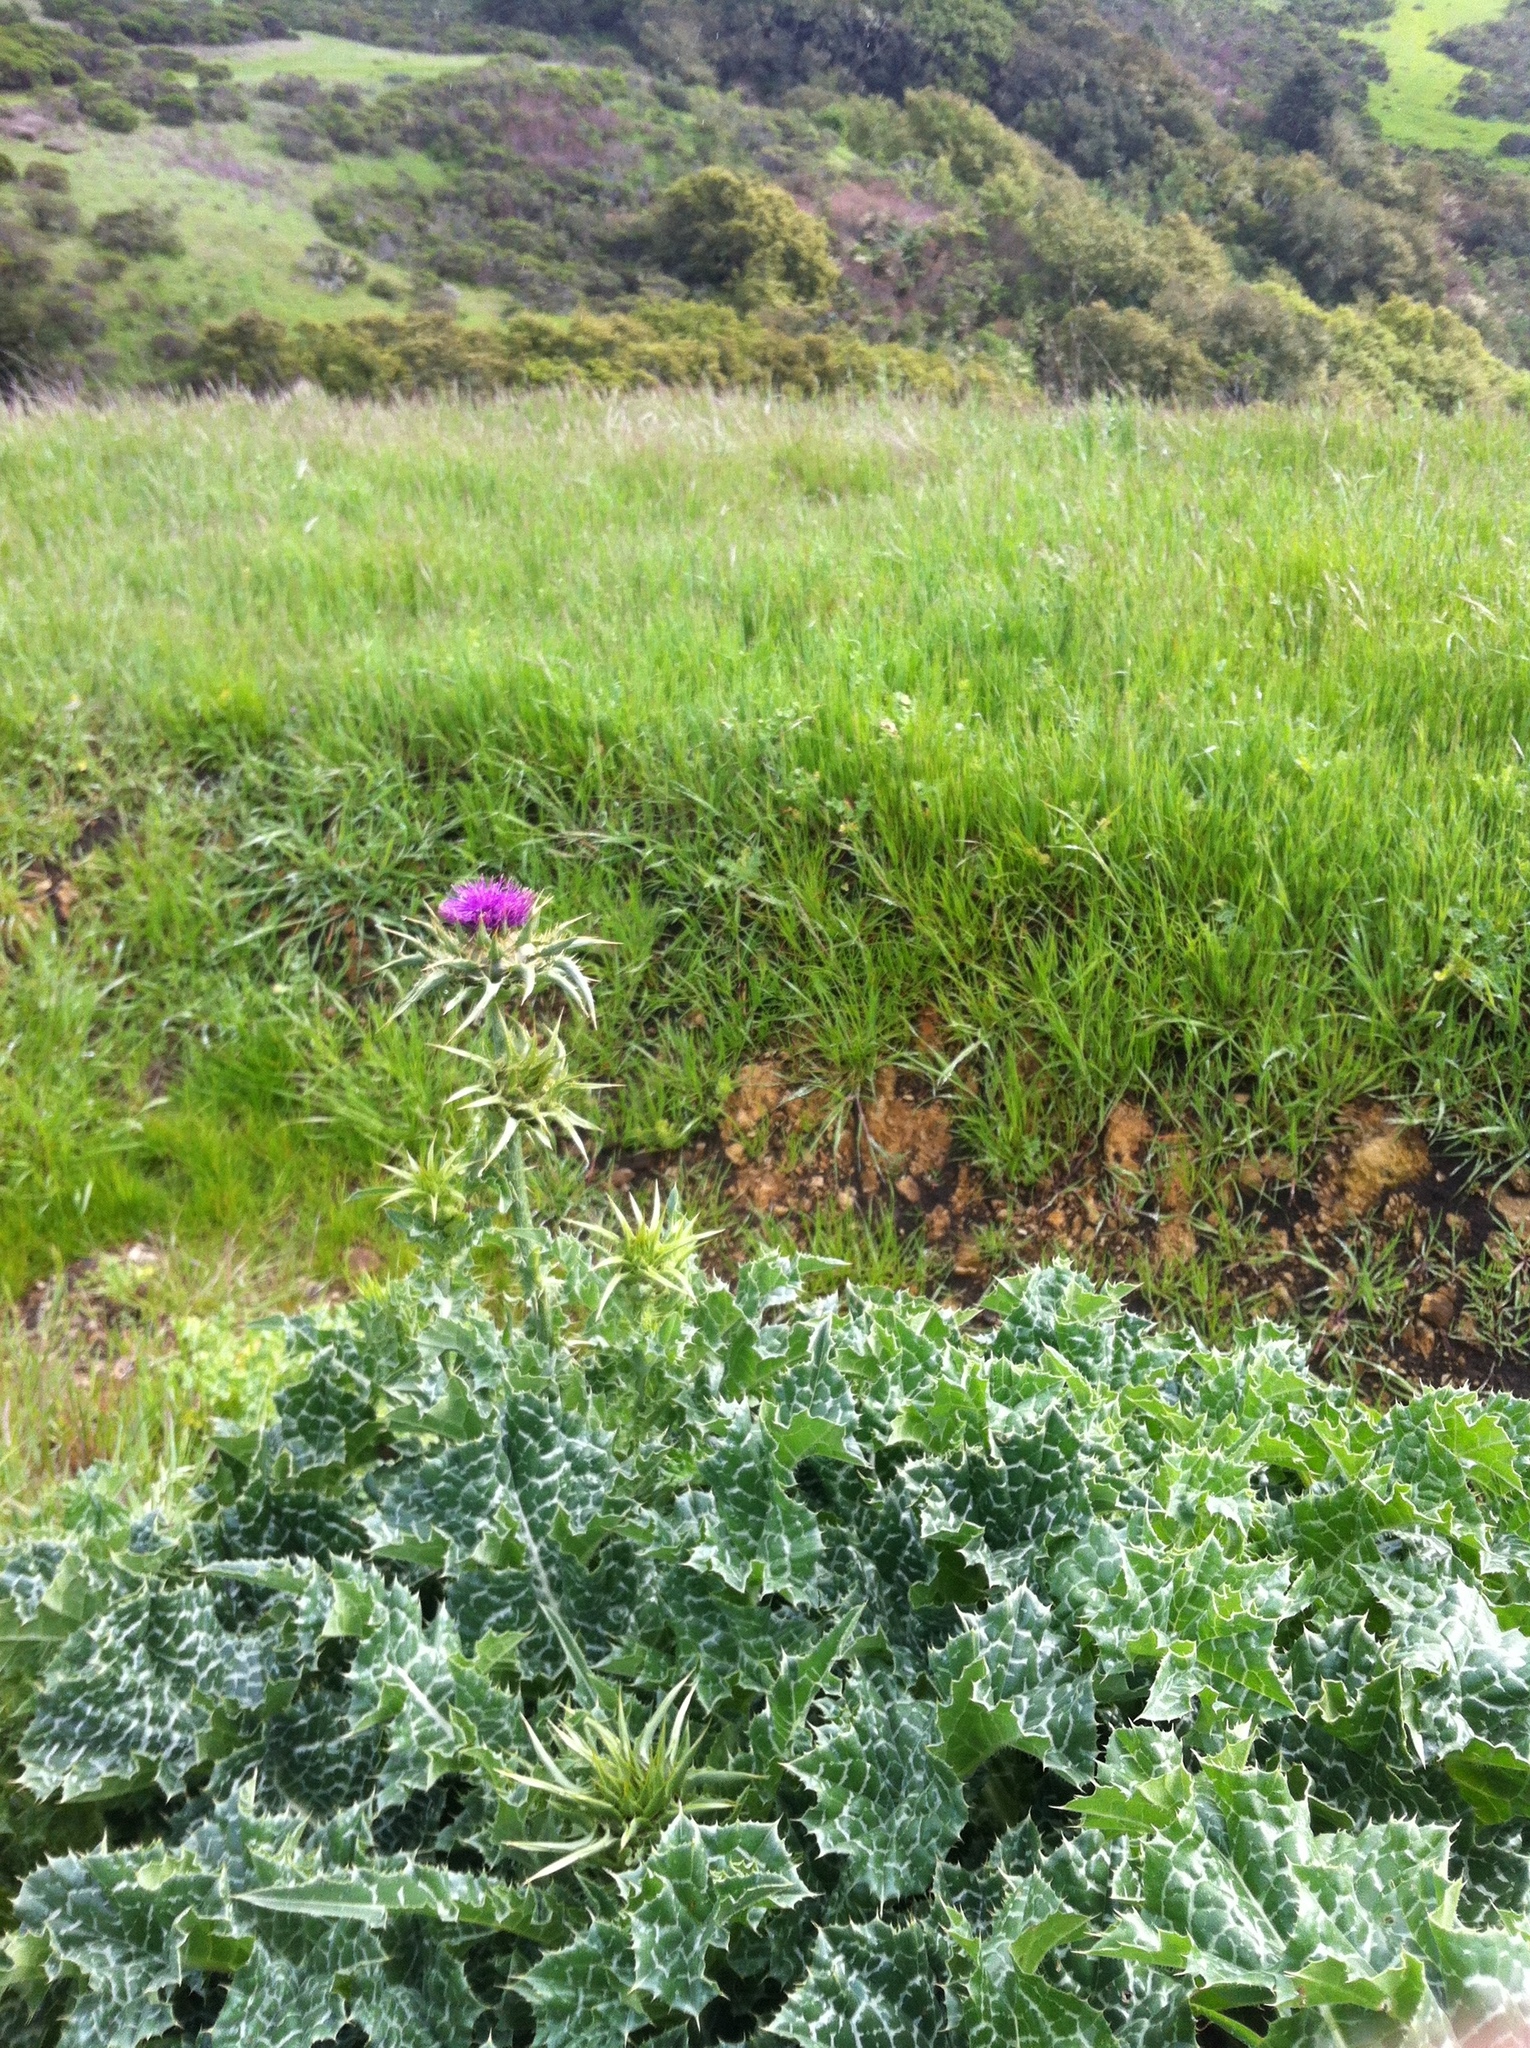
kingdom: Plantae
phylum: Tracheophyta
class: Magnoliopsida
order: Asterales
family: Asteraceae
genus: Silybum
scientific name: Silybum marianum
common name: Milk thistle
